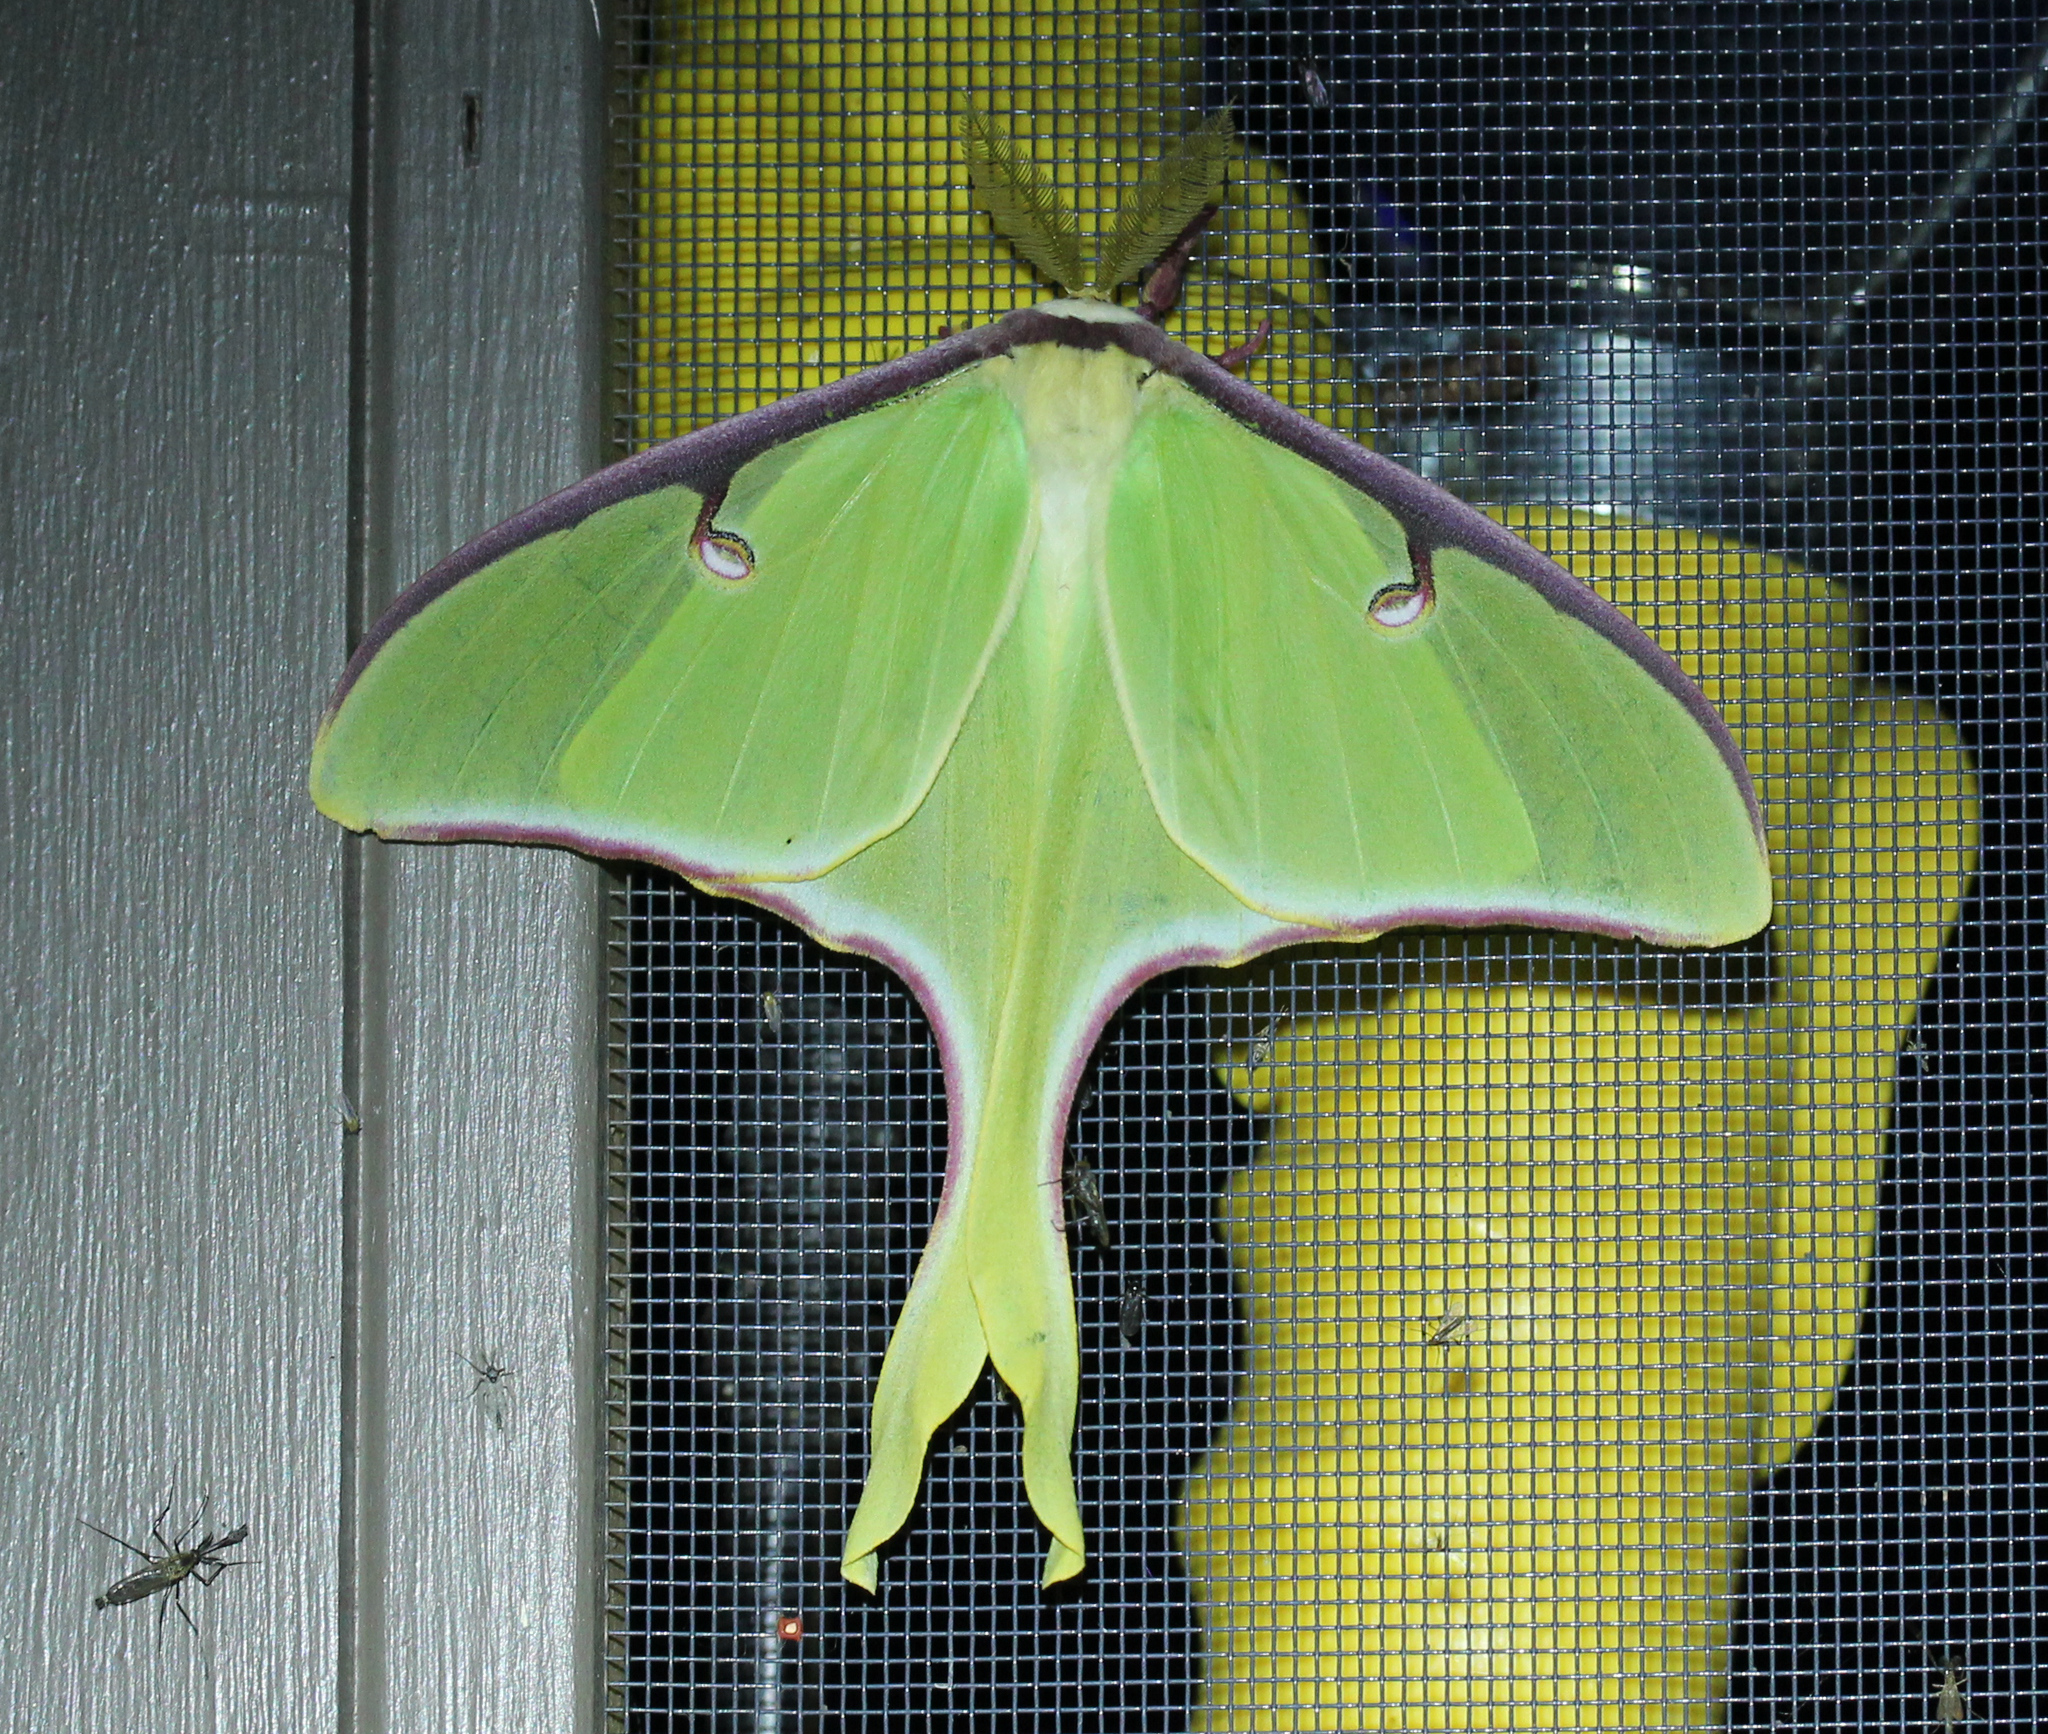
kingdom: Animalia
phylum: Arthropoda
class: Insecta
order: Lepidoptera
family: Saturniidae
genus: Actias
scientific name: Actias luna
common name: Luna moth
